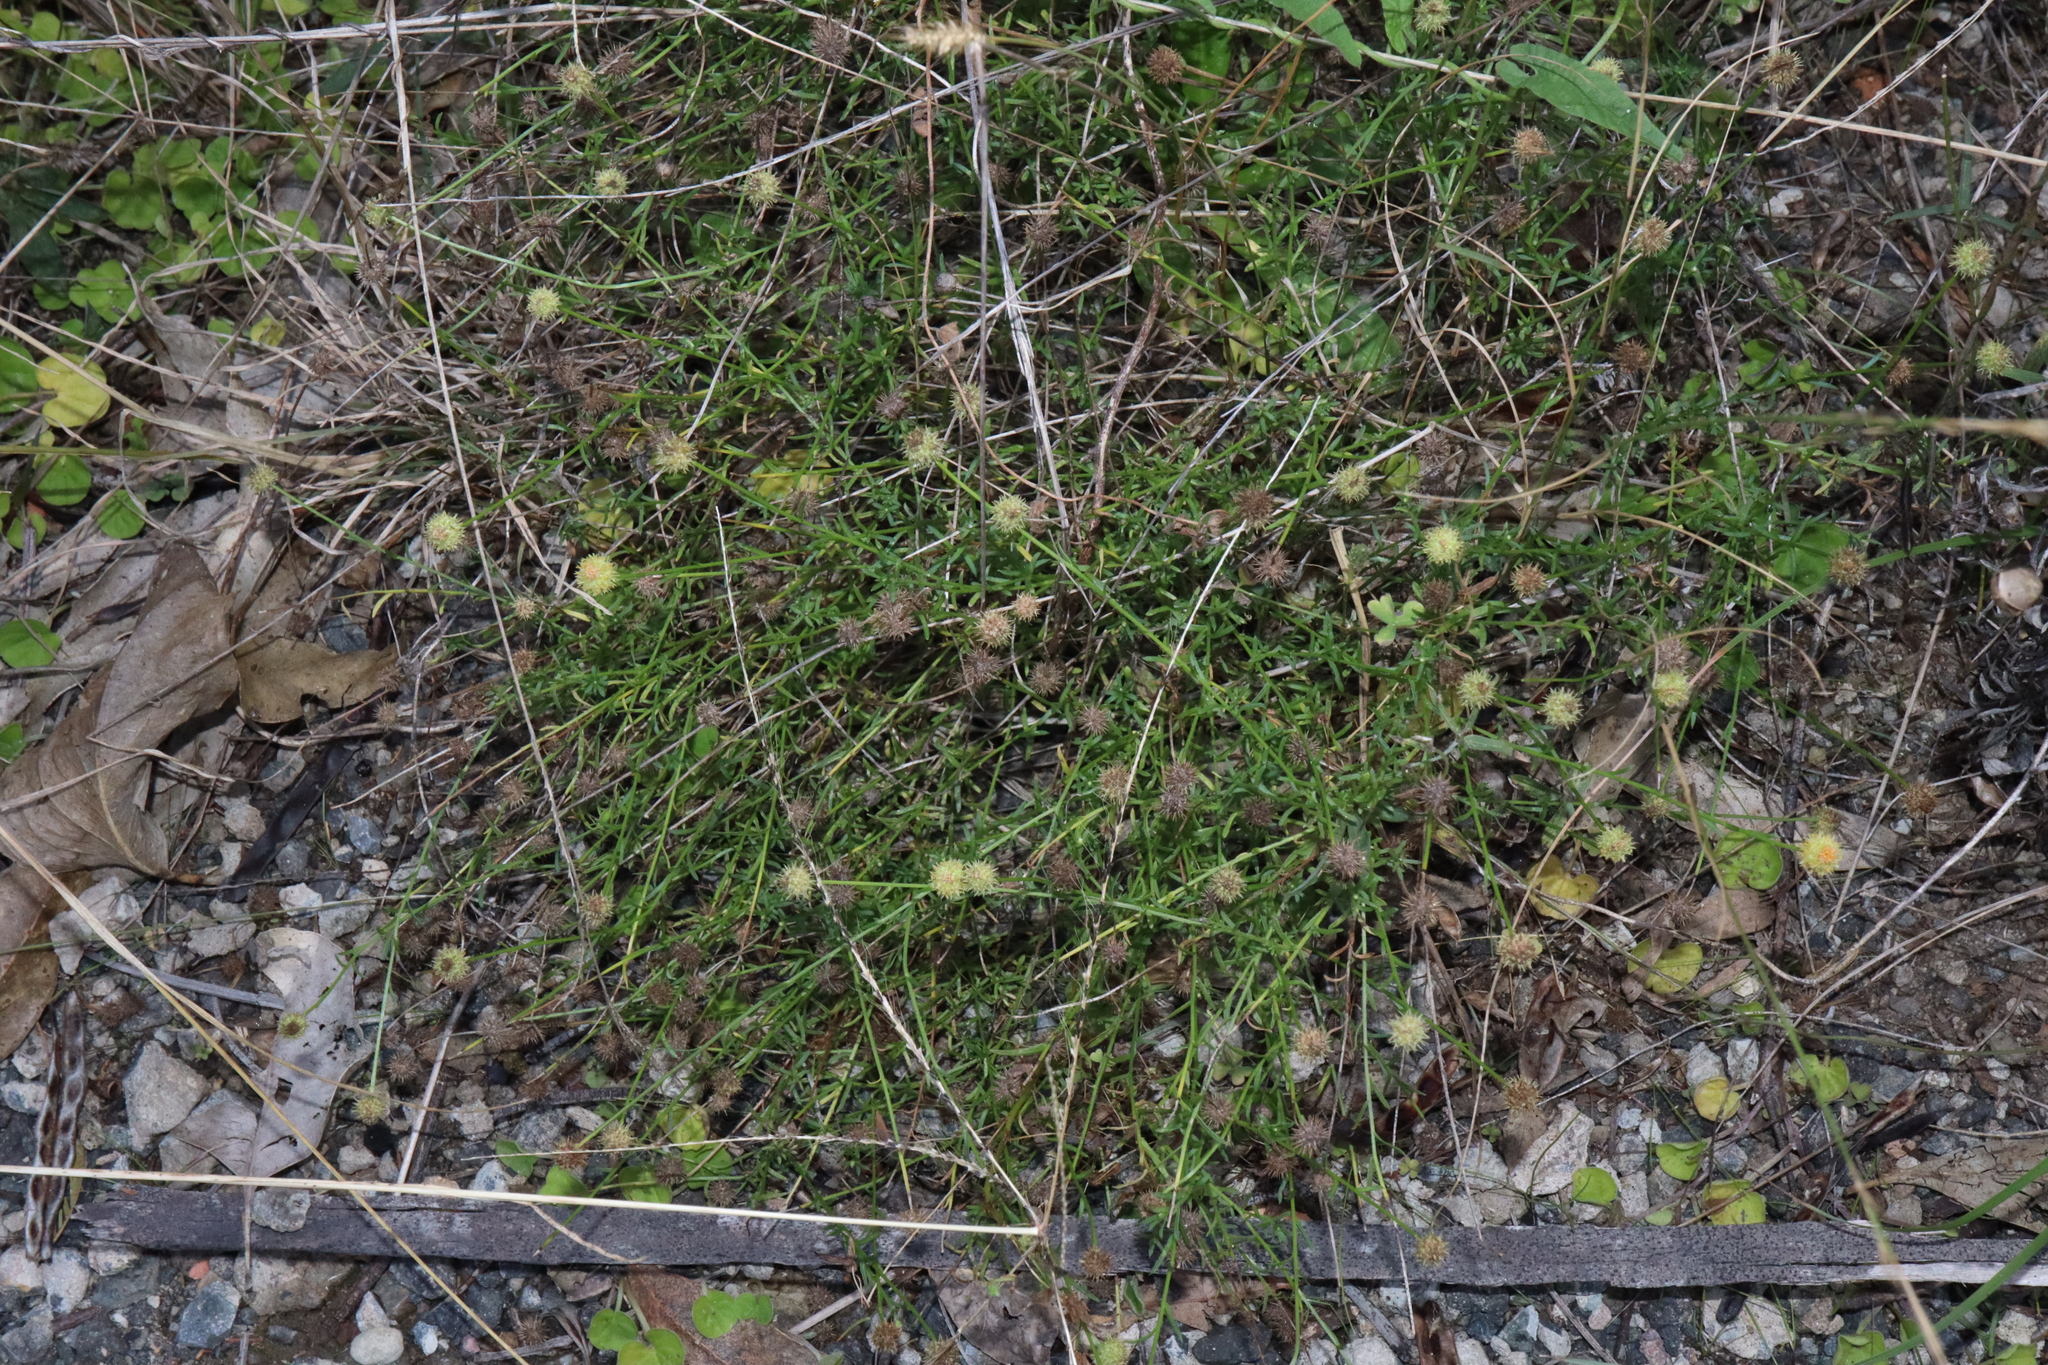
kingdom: Plantae
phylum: Tracheophyta
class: Magnoliopsida
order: Asterales
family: Asteraceae
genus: Calotis
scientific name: Calotis lappulacea
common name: Bur daisy
